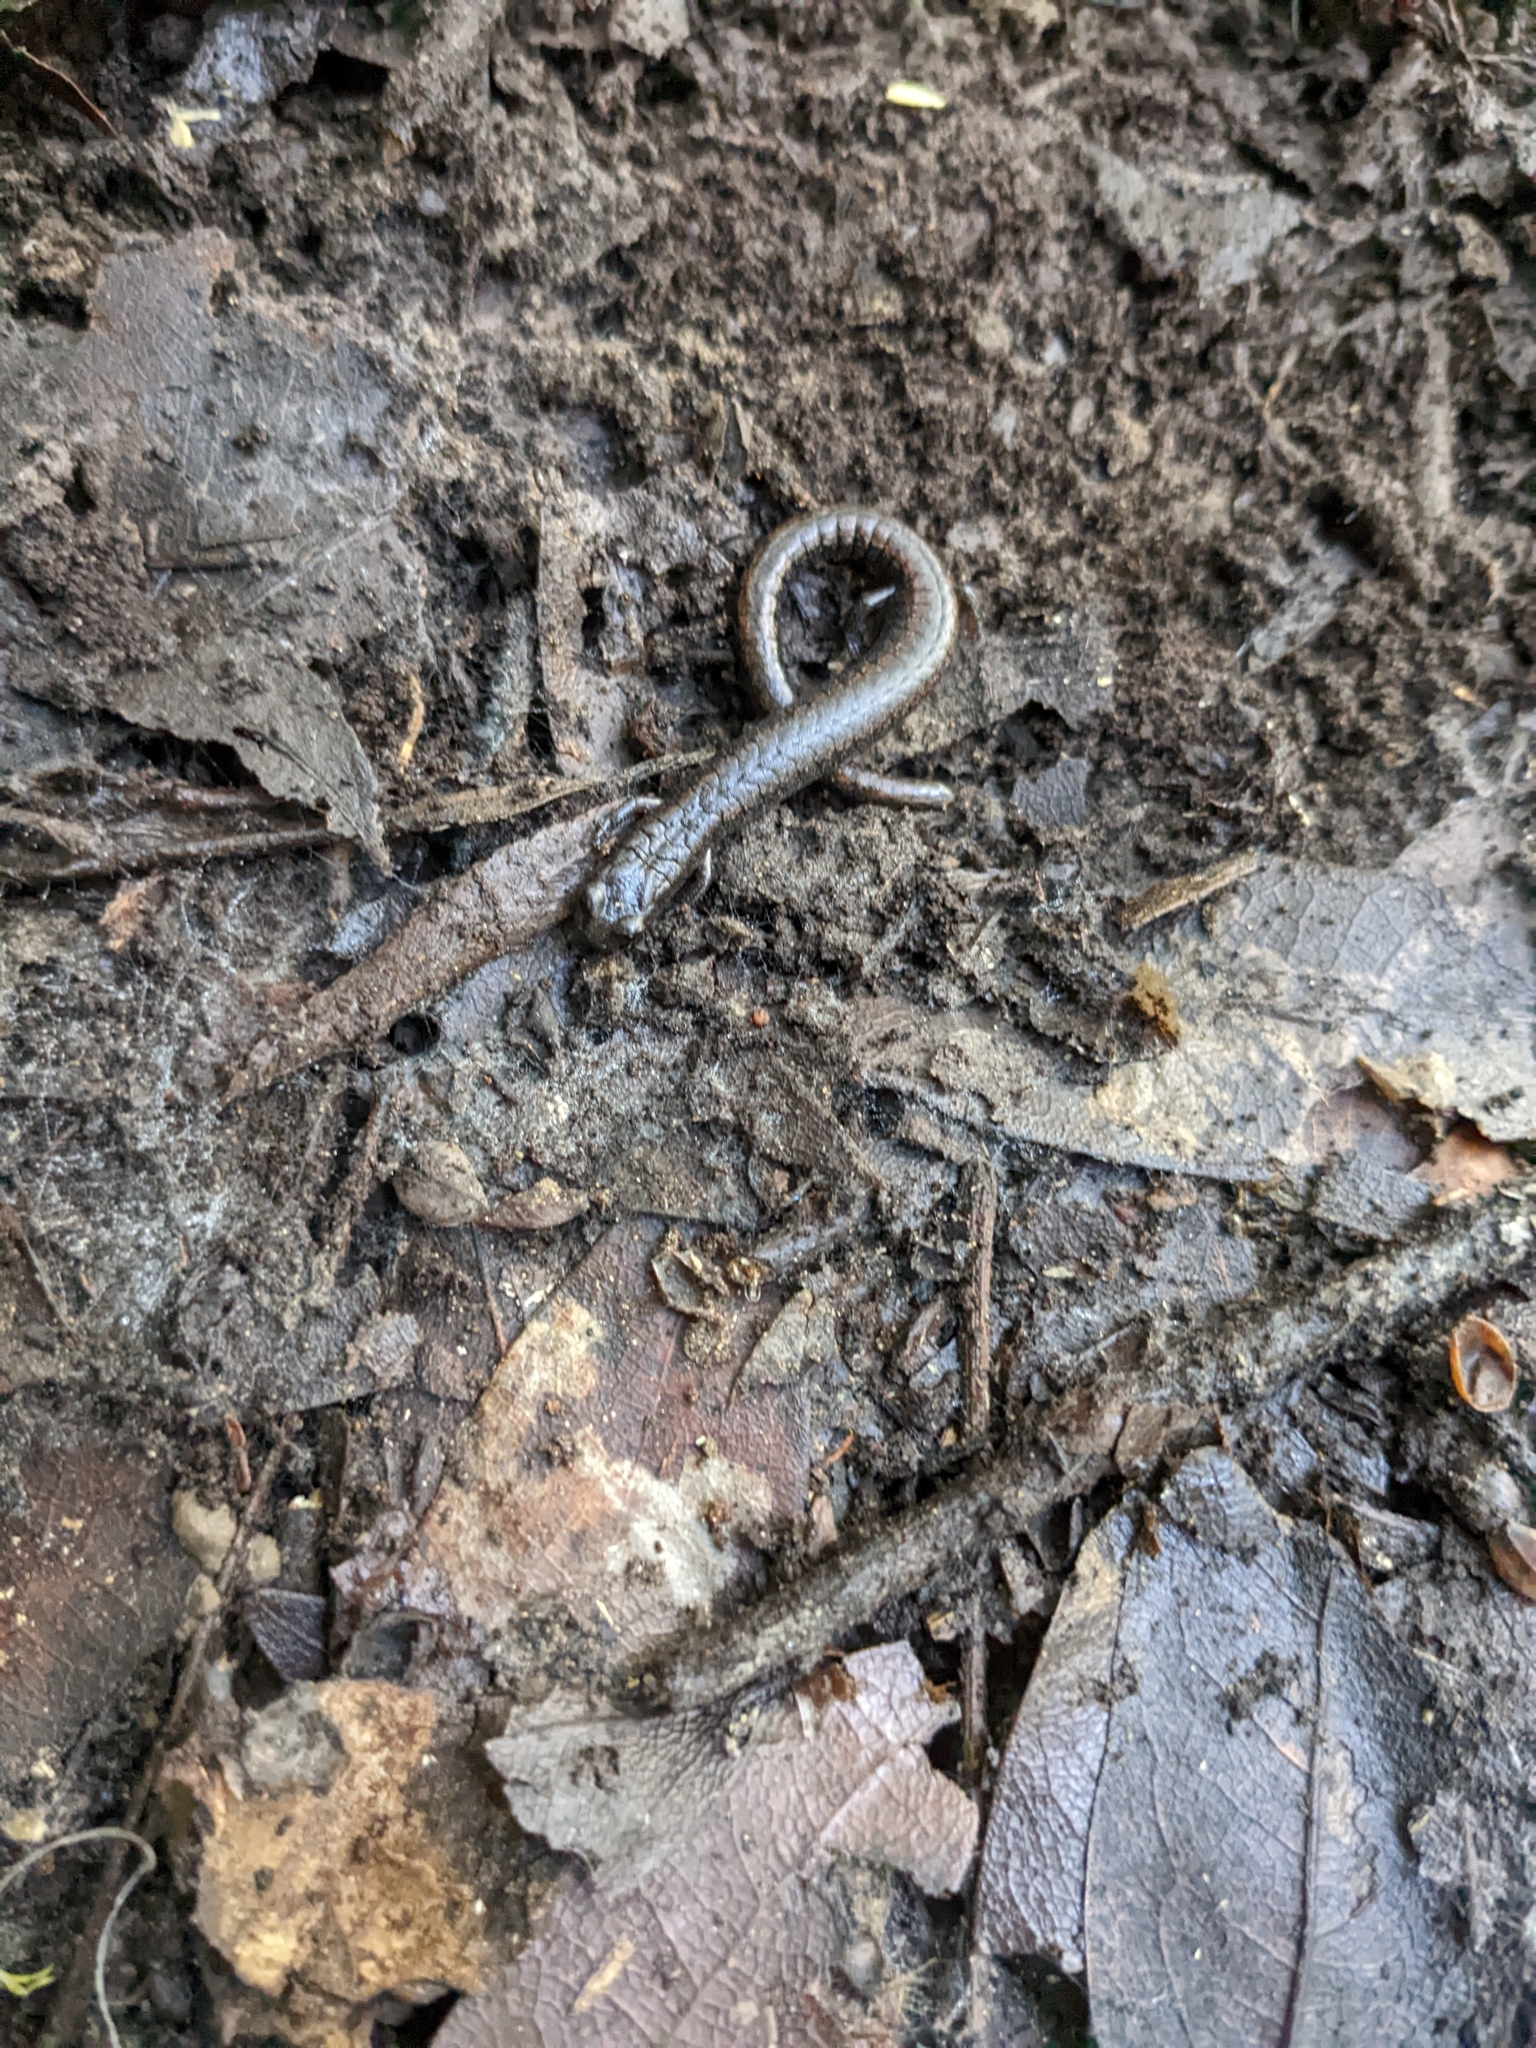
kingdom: Animalia
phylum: Chordata
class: Amphibia
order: Caudata
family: Plethodontidae
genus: Batrachoseps
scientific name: Batrachoseps attenuatus
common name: California slender salamander
